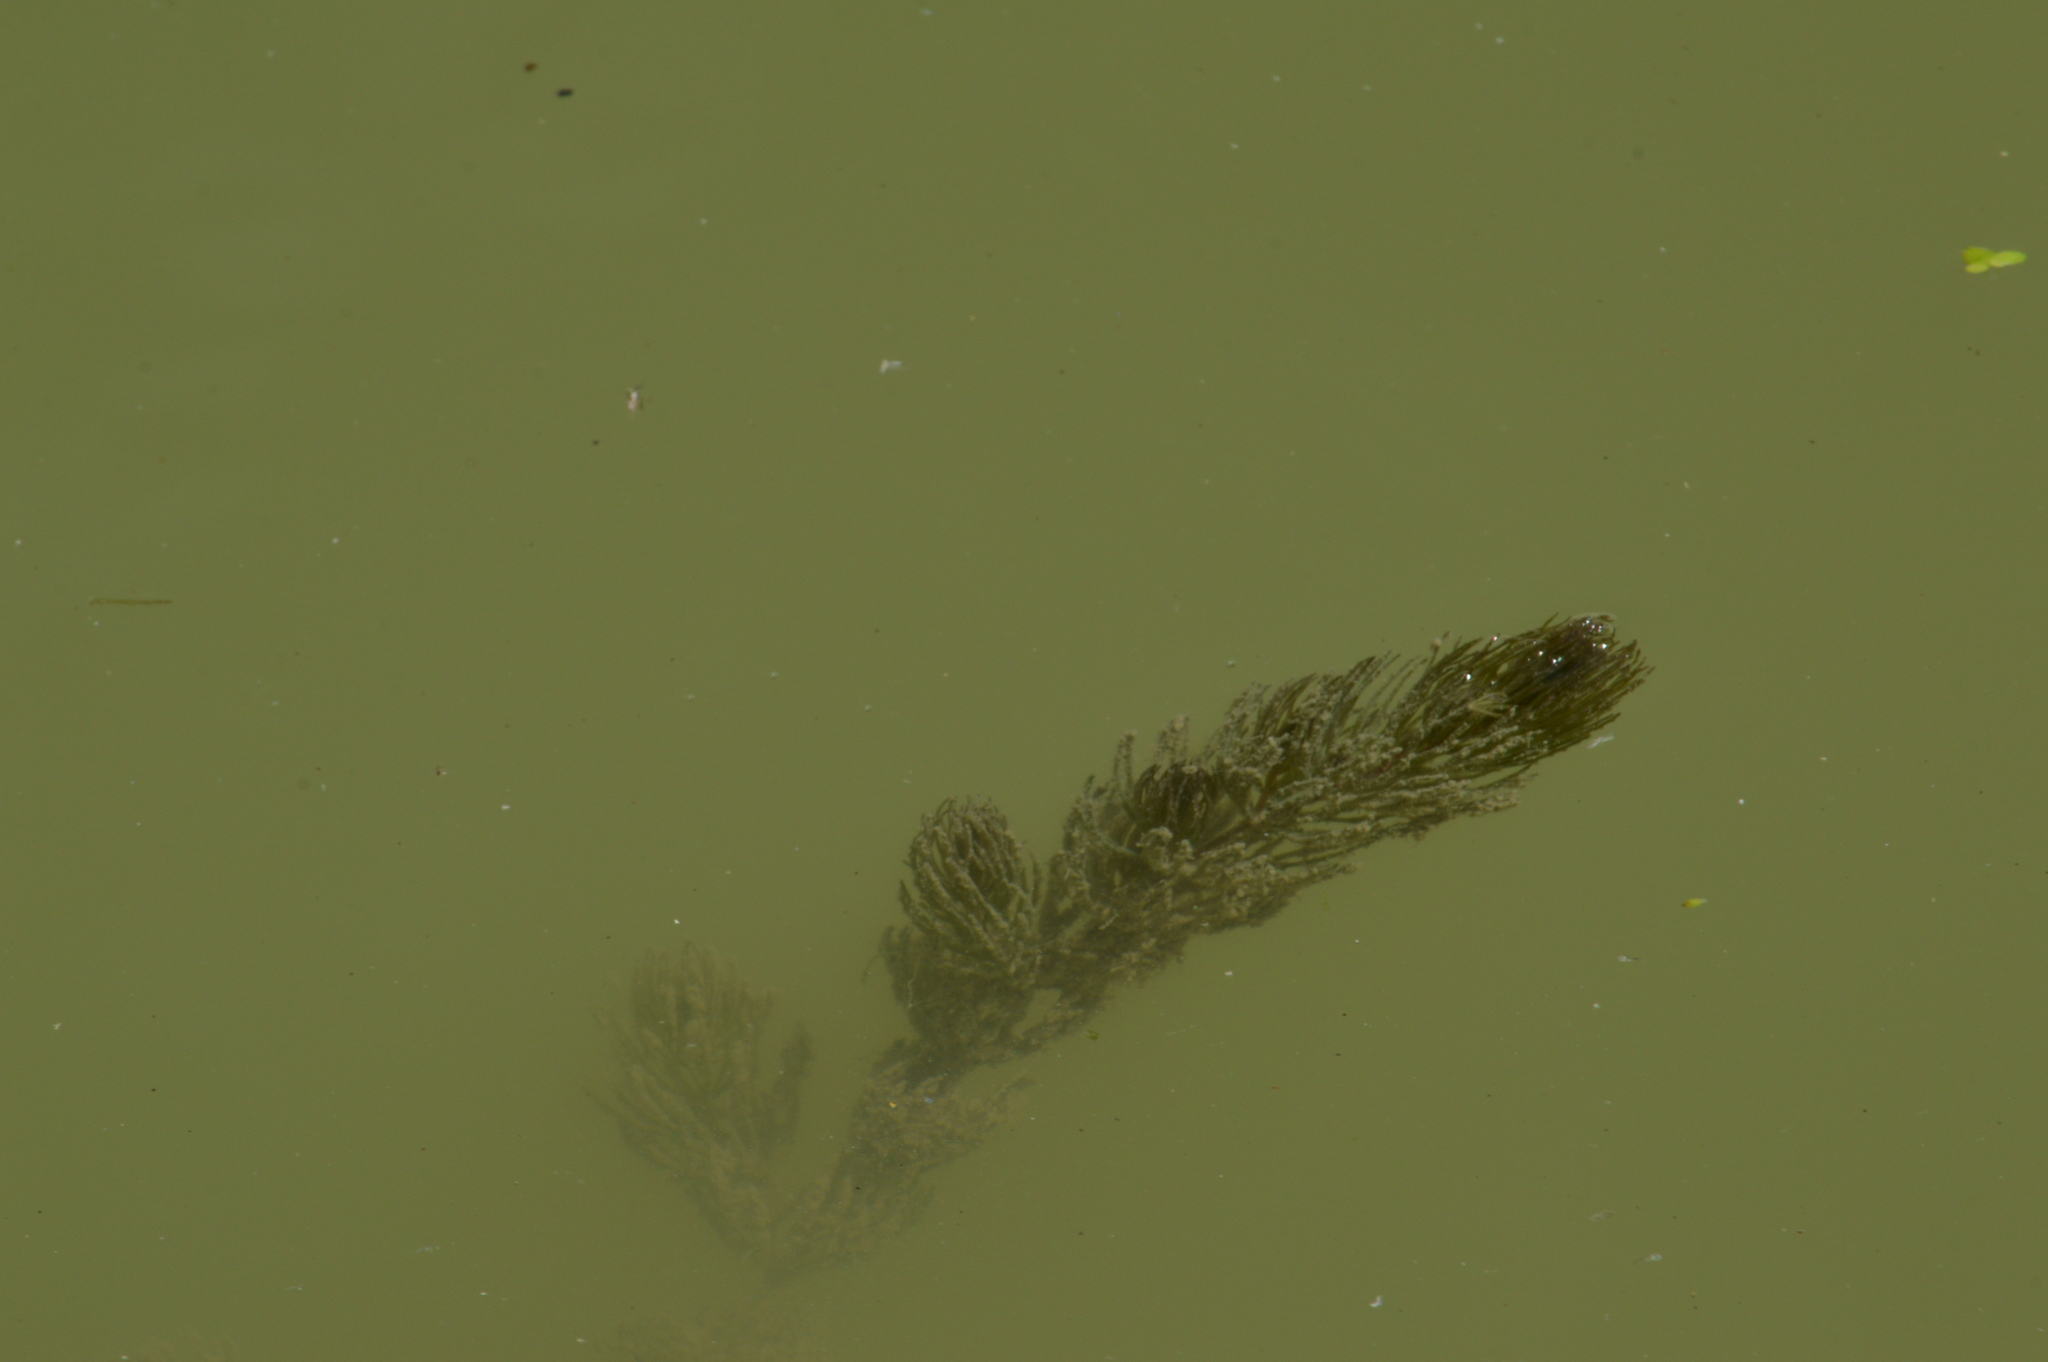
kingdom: Plantae
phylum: Tracheophyta
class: Magnoliopsida
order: Ceratophyllales
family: Ceratophyllaceae
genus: Ceratophyllum
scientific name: Ceratophyllum demersum
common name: Rigid hornwort
